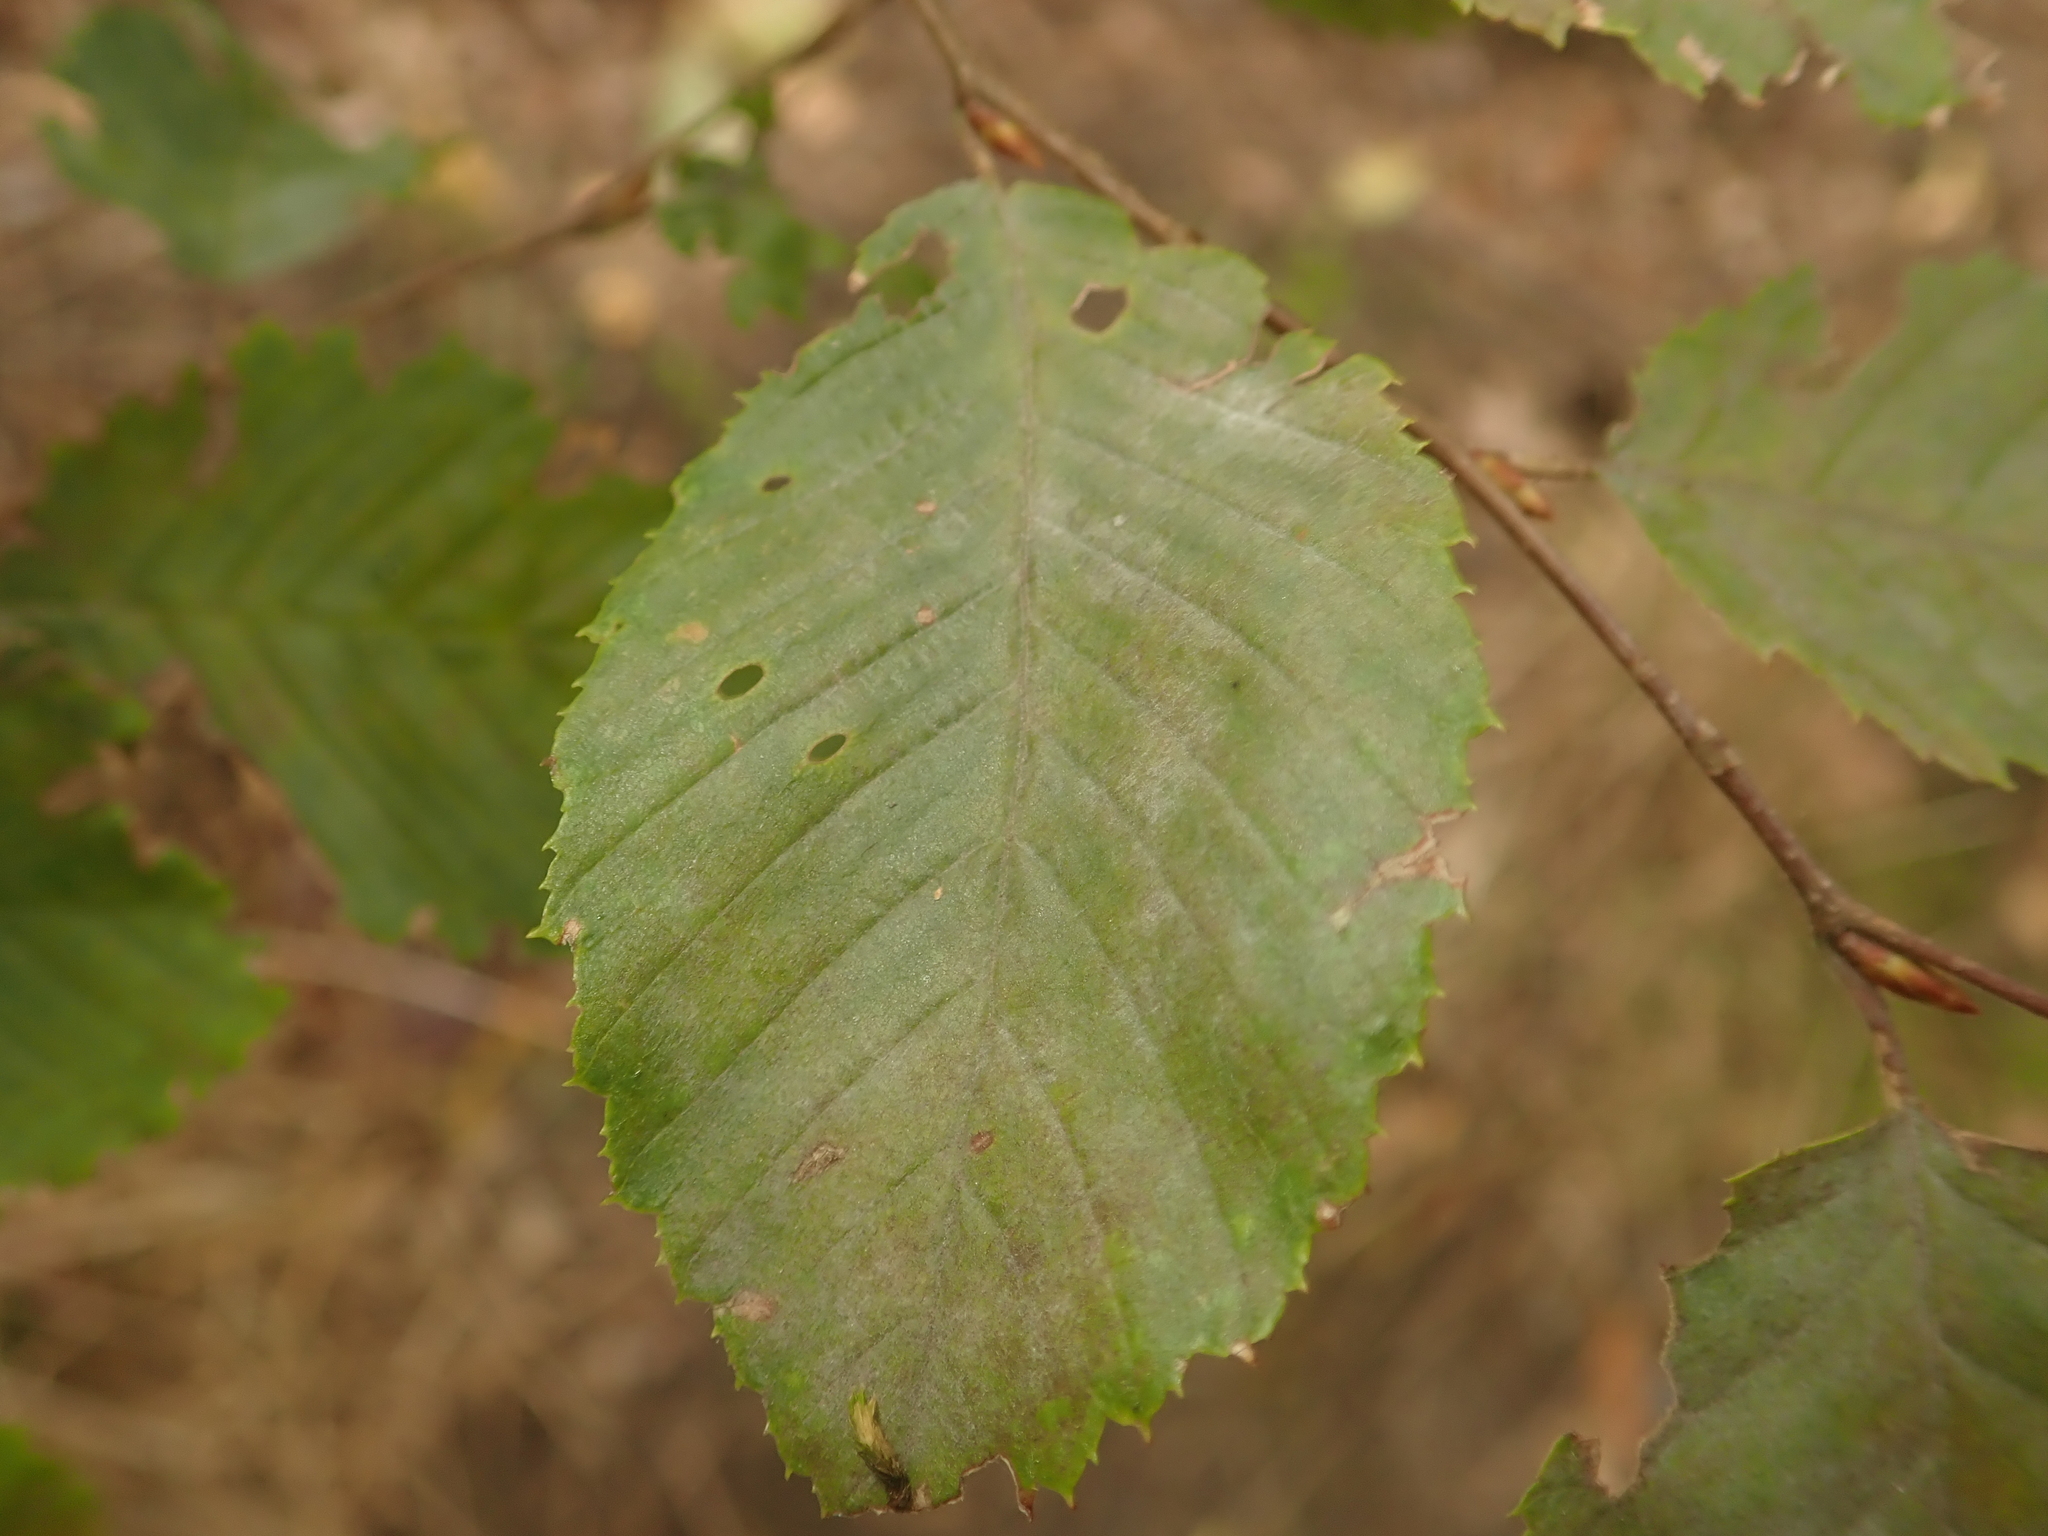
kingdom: Plantae
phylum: Tracheophyta
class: Magnoliopsida
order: Fagales
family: Betulaceae
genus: Carpinus
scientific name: Carpinus betulus
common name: Hornbeam
